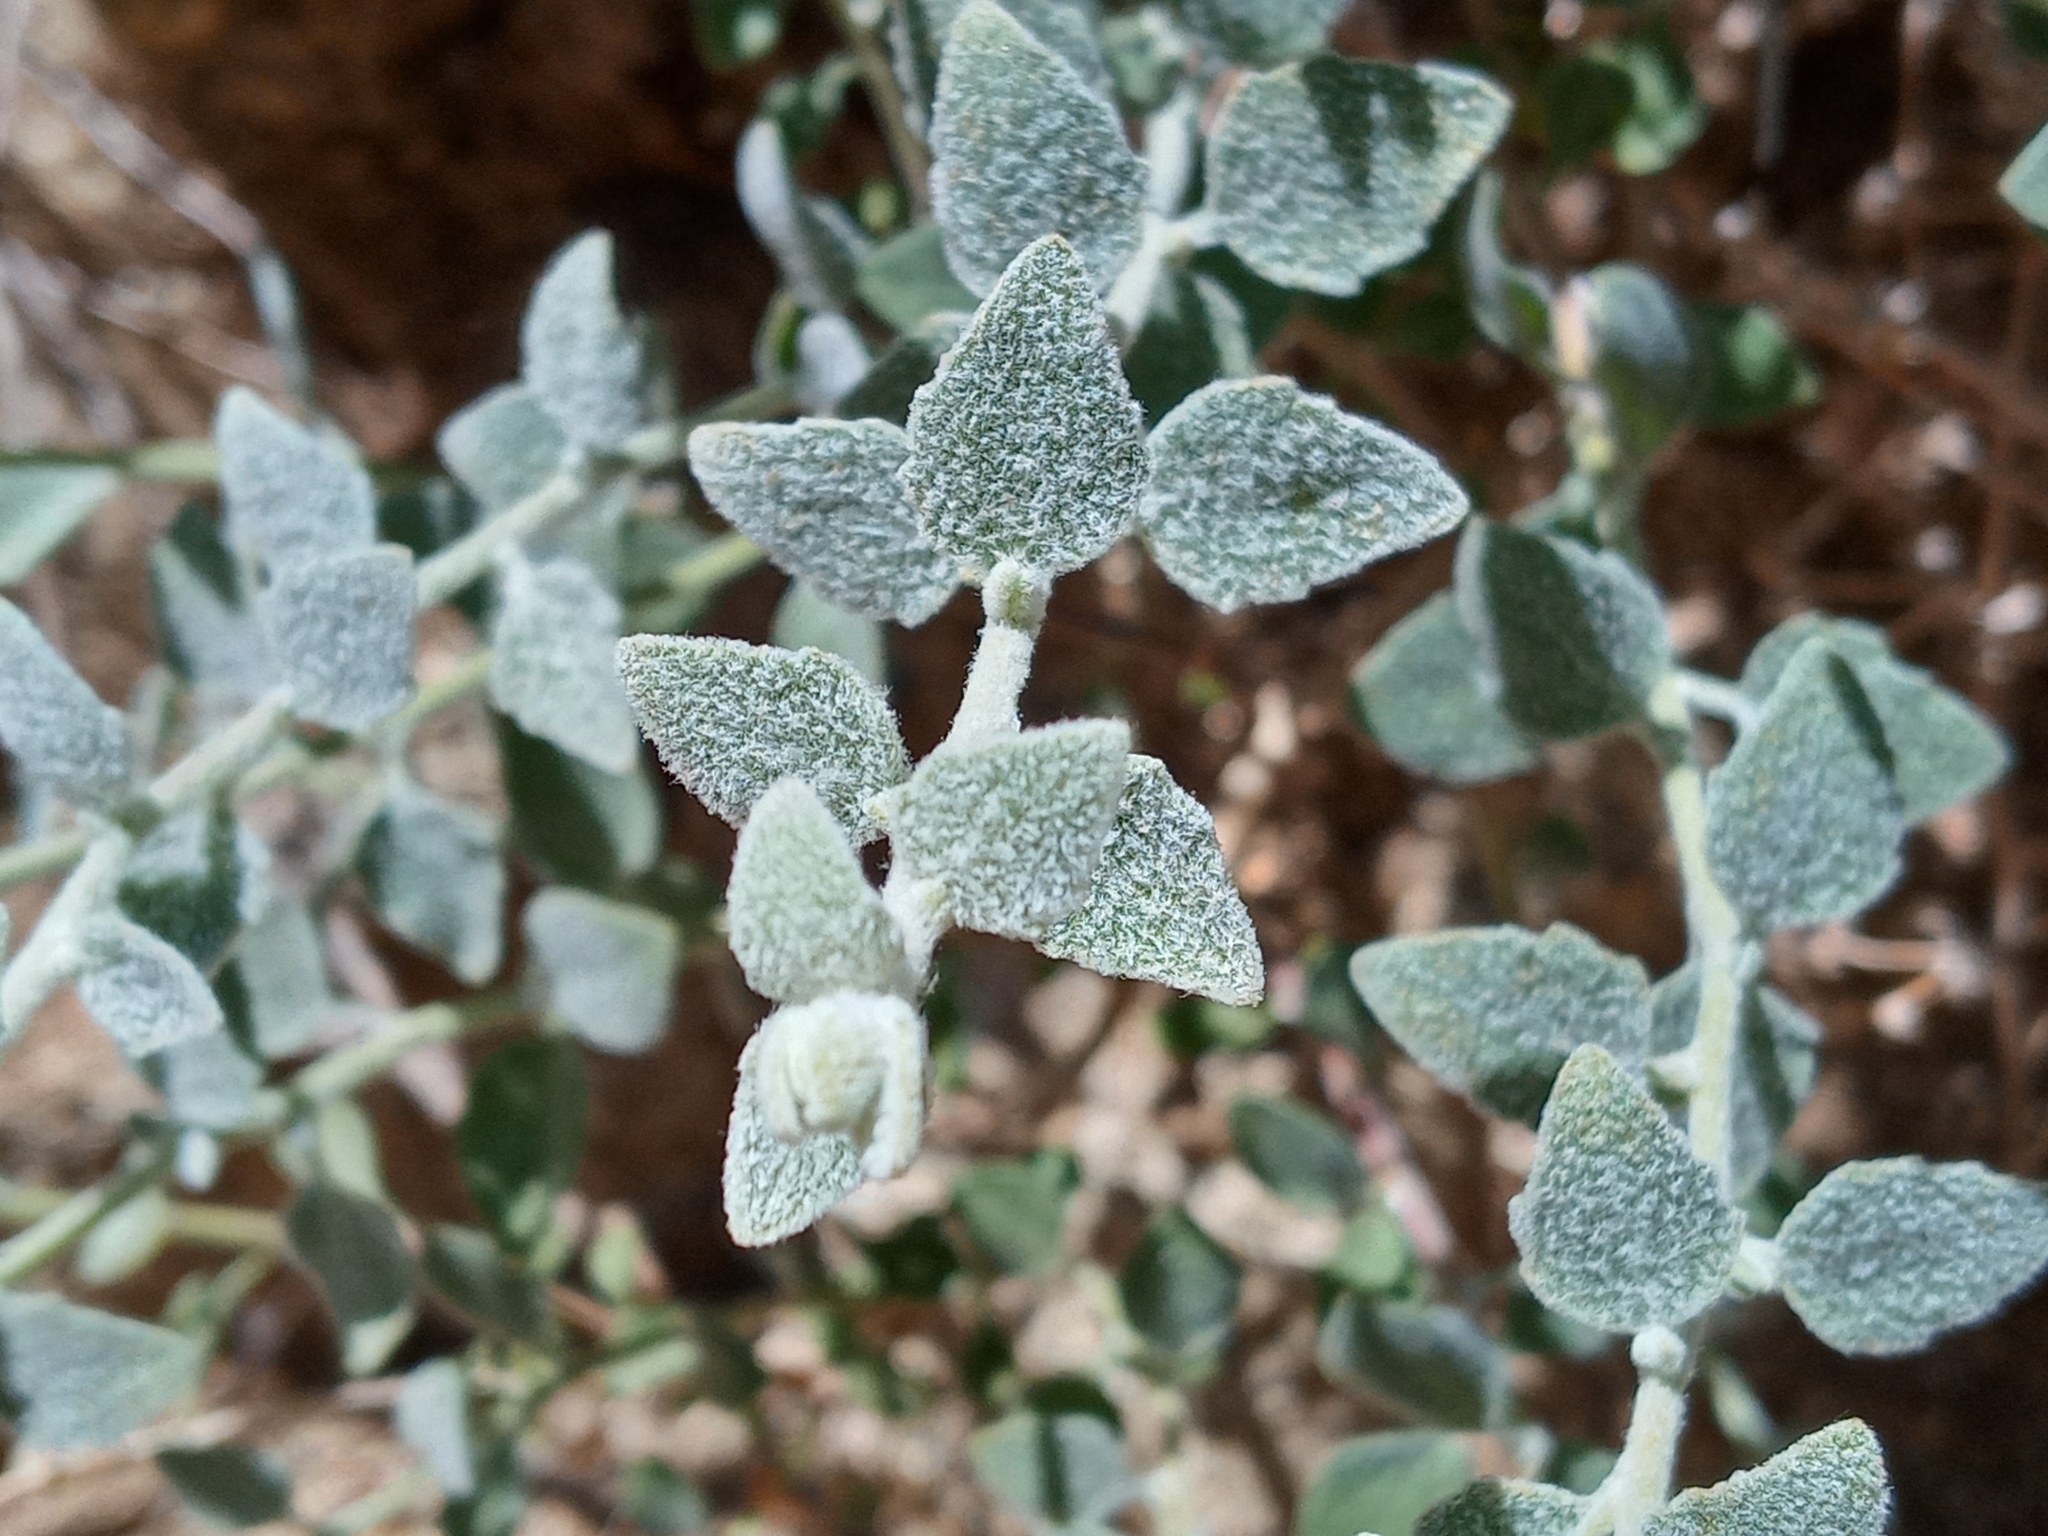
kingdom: Plantae
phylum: Tracheophyta
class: Magnoliopsida
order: Asterales
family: Asteraceae
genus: Brickellia
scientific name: Brickellia nevinii
